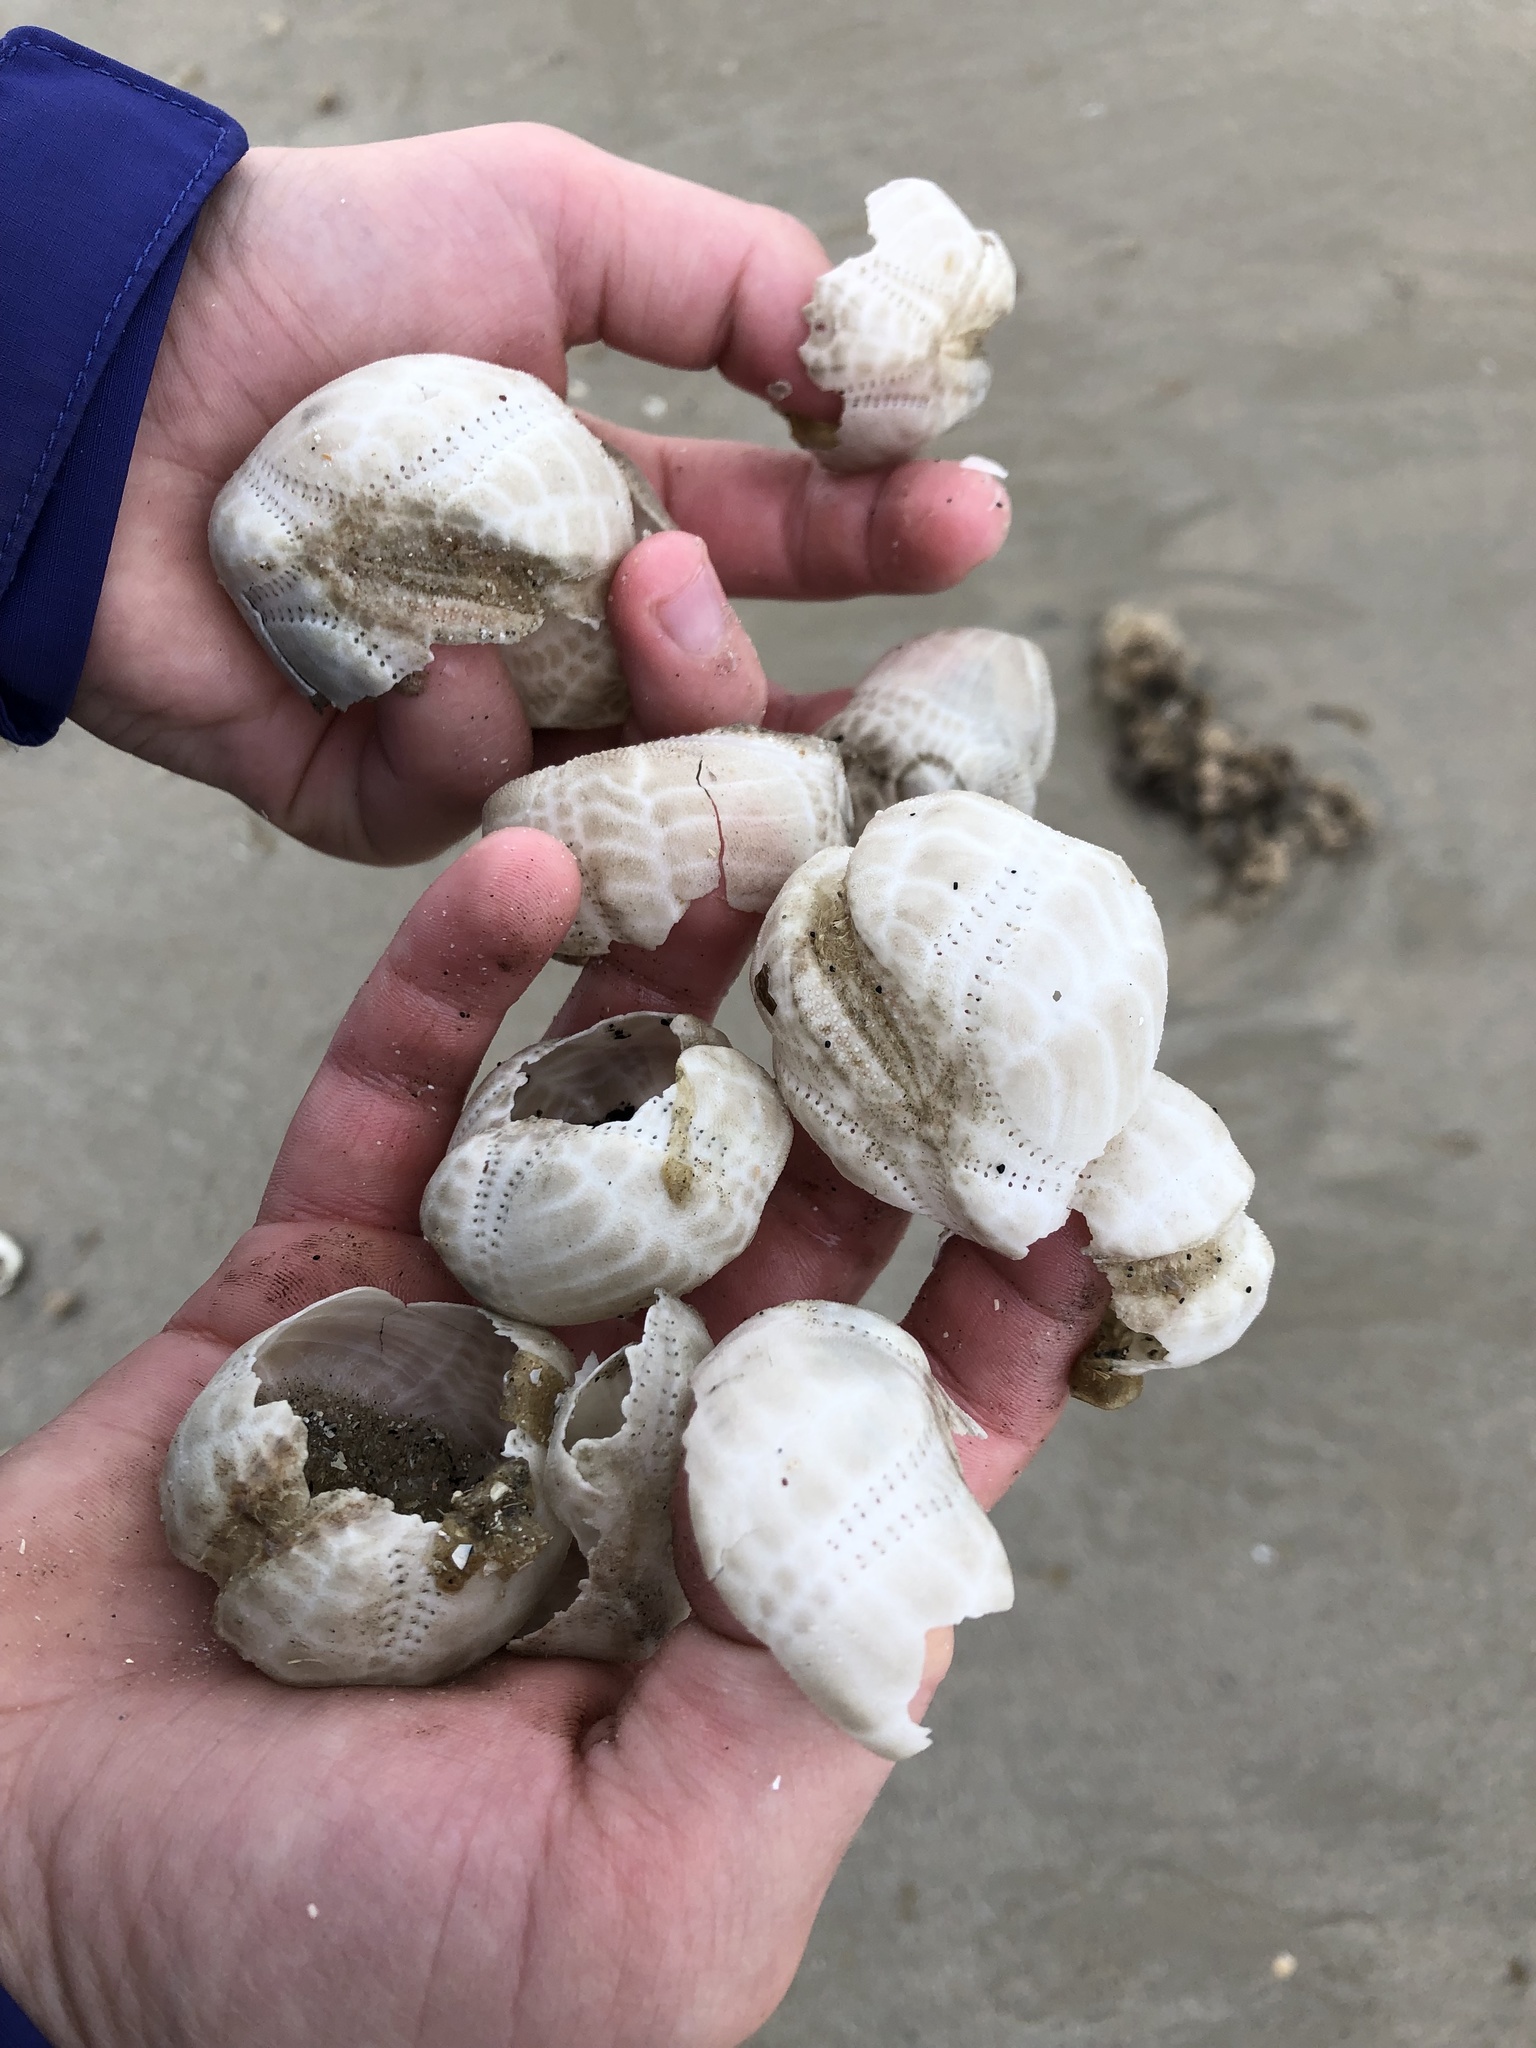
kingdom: Animalia
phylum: Echinodermata
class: Echinoidea
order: Spatangoida
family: Loveniidae
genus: Echinocardium
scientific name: Echinocardium cordatum
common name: Heart-urchin
